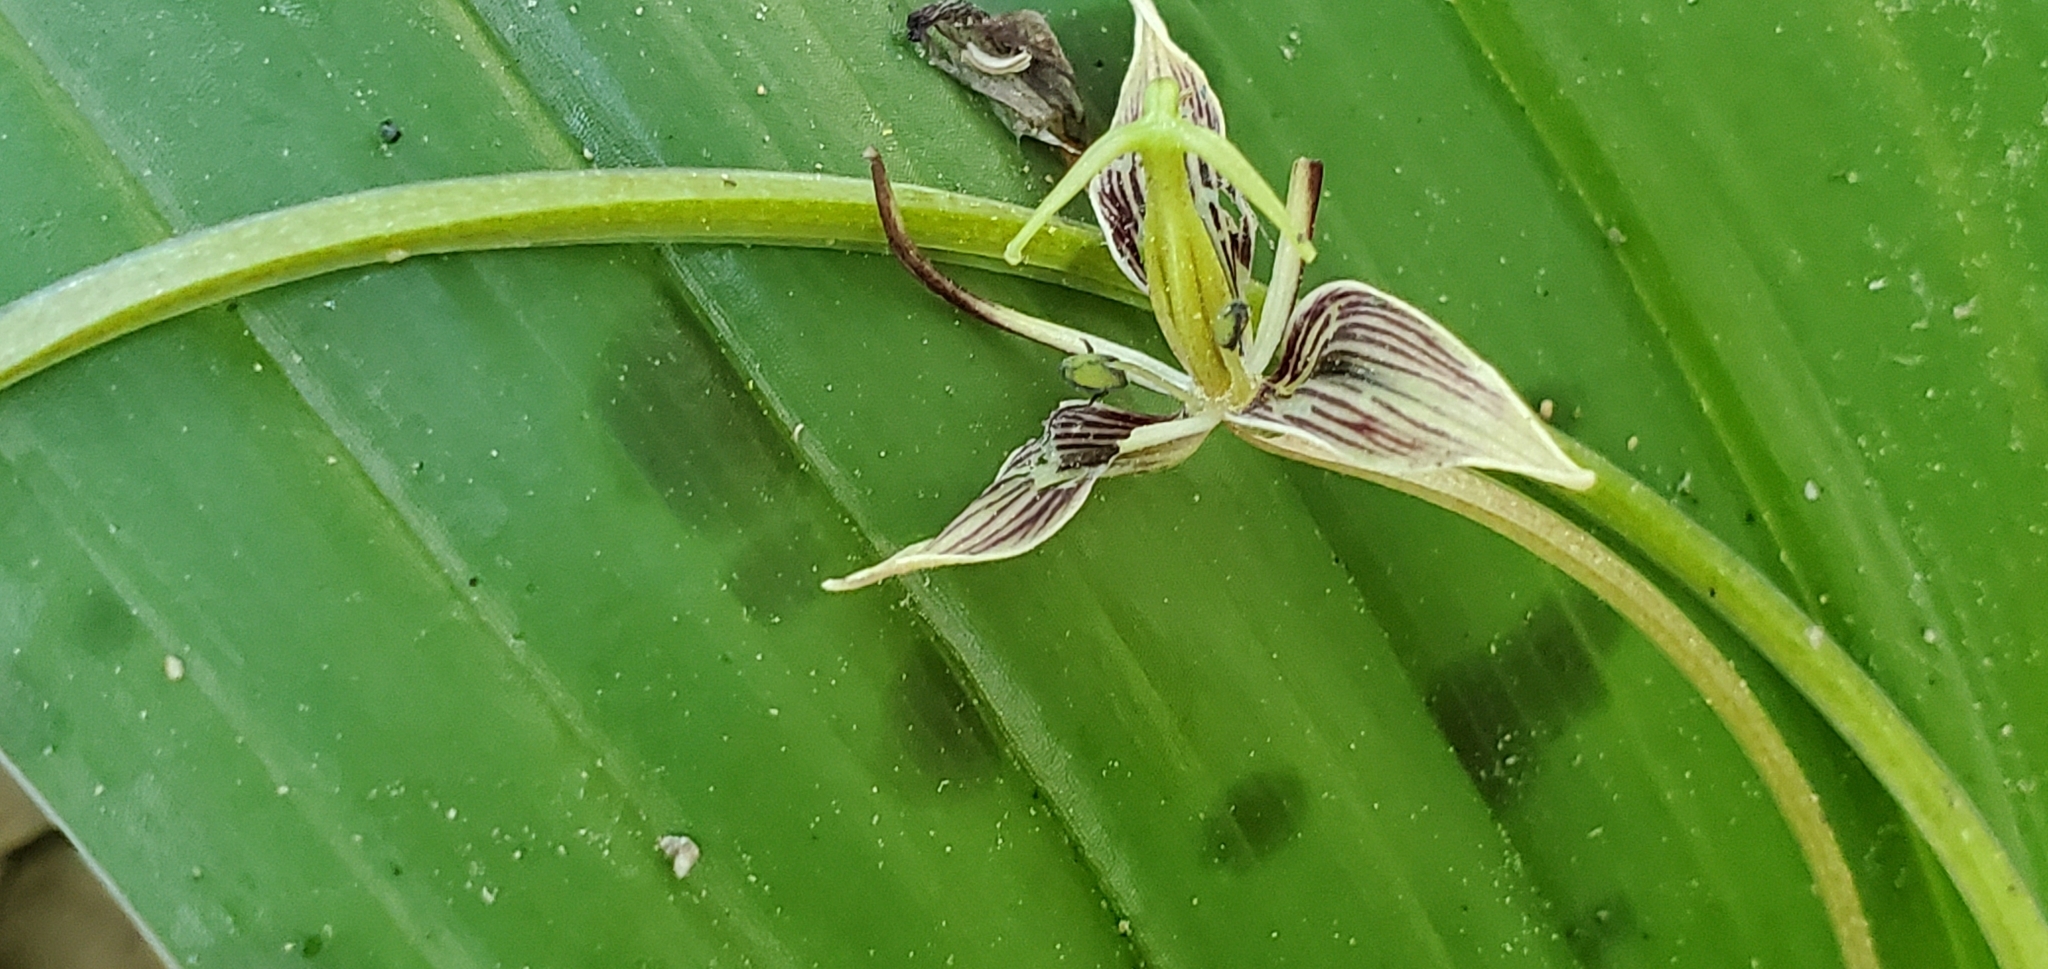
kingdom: Plantae
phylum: Tracheophyta
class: Liliopsida
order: Liliales
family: Liliaceae
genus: Scoliopus
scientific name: Scoliopus bigelovii
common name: Foetid adder's-tongue
